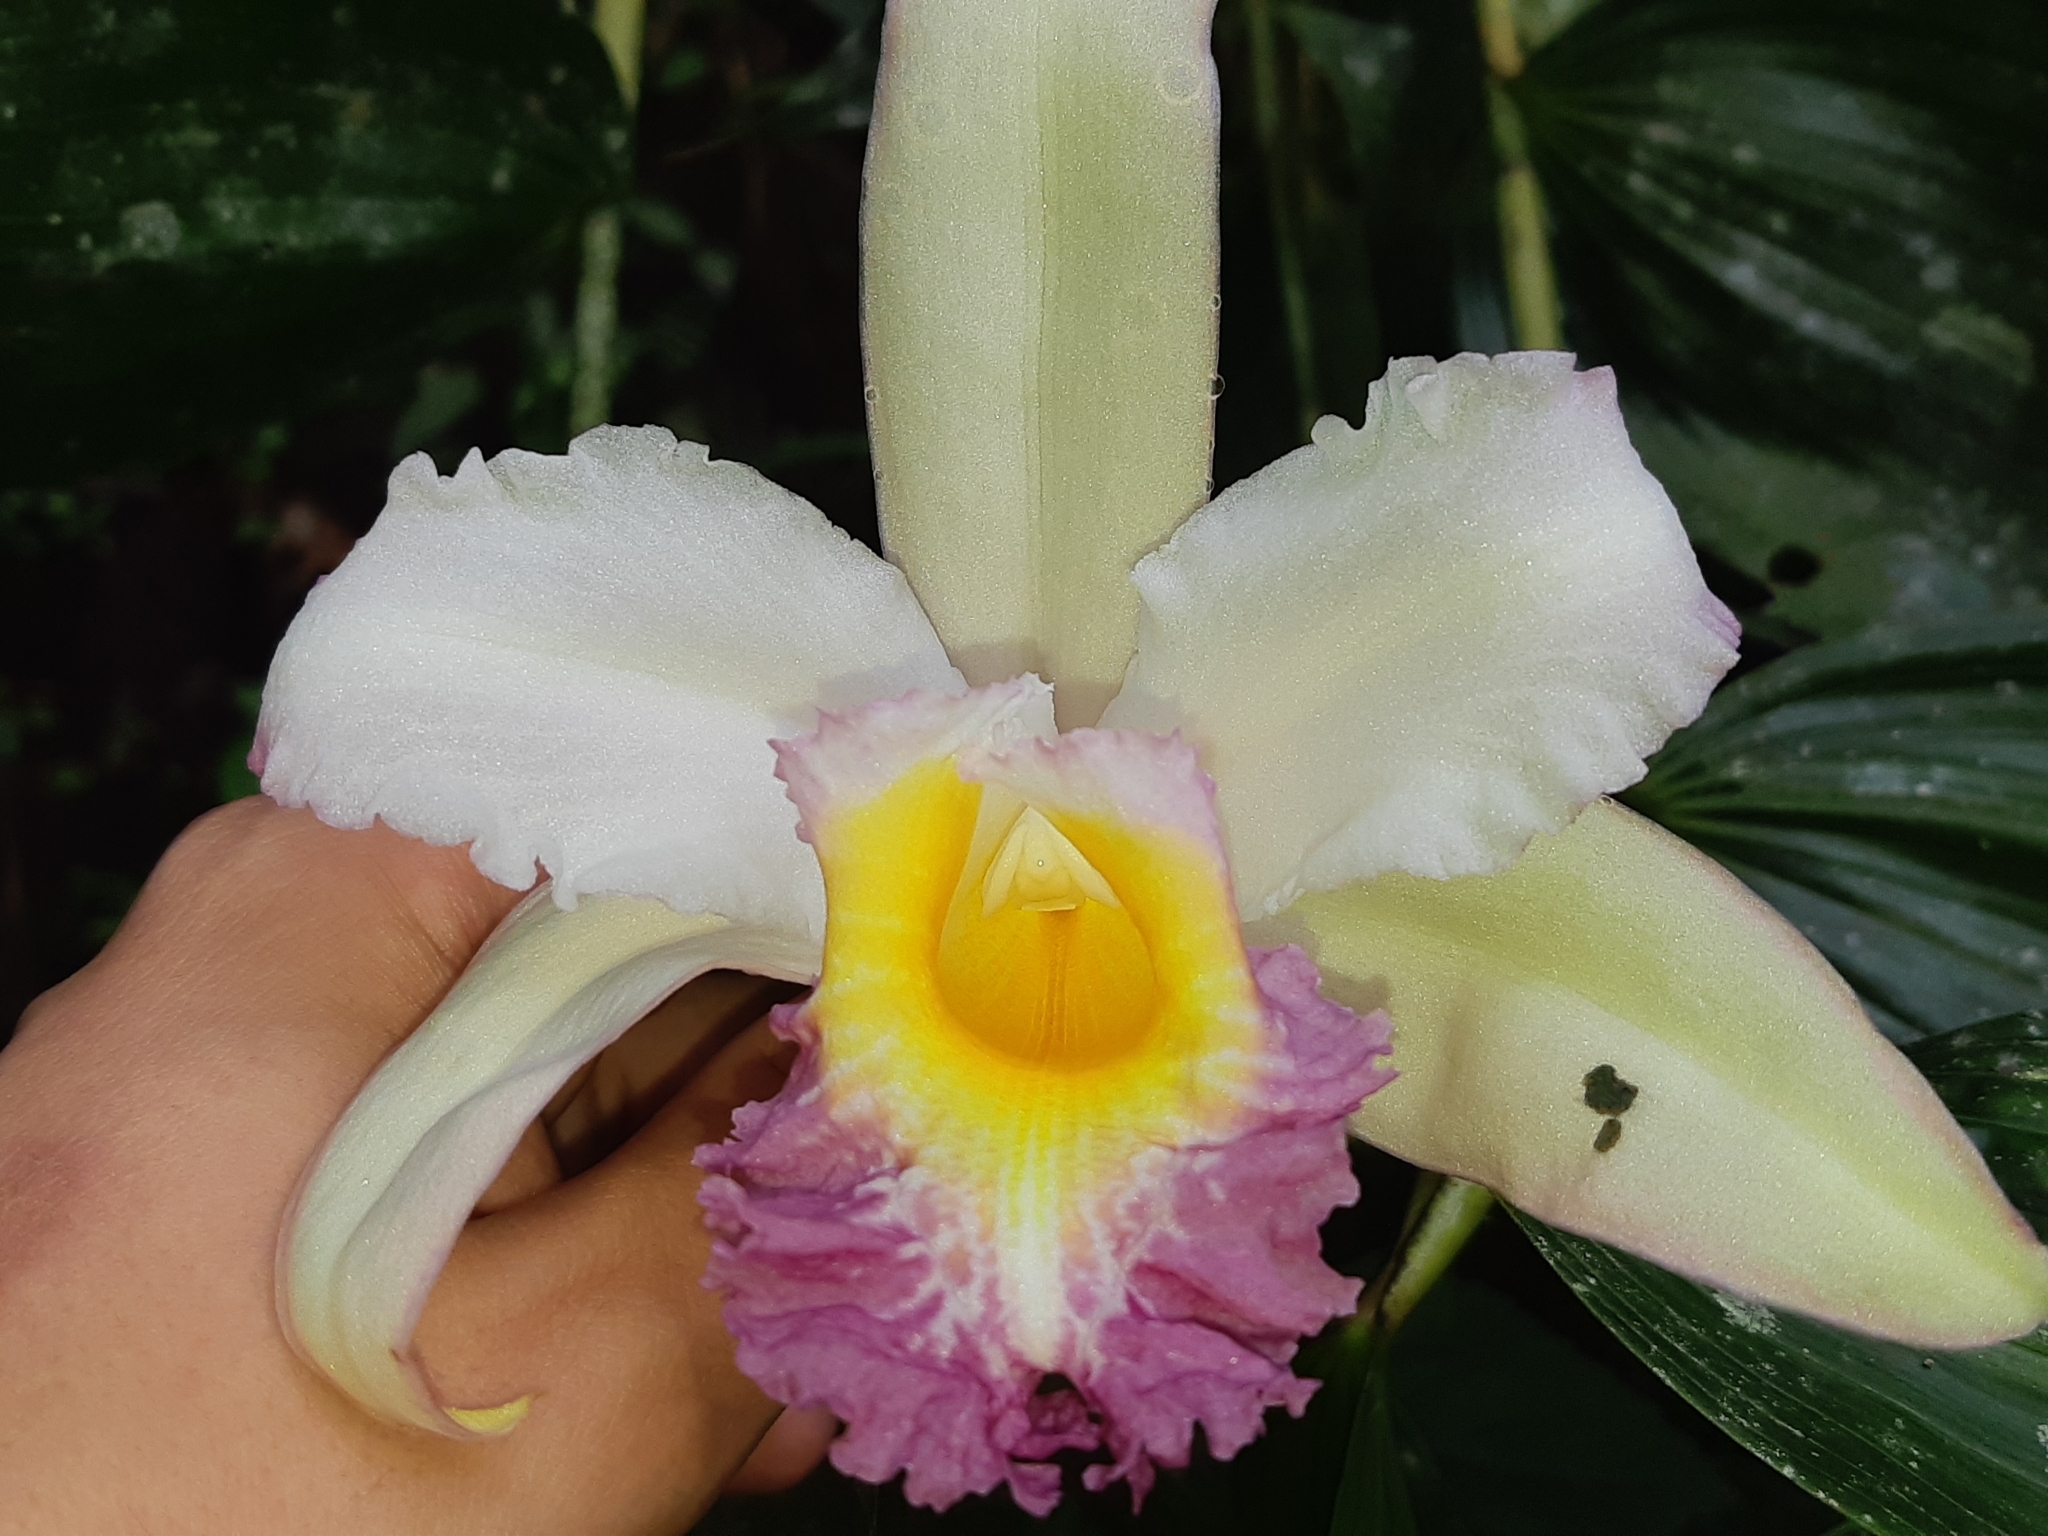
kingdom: Plantae
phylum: Tracheophyta
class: Liliopsida
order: Asparagales
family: Orchidaceae
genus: Sobralia
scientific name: Sobralia ecuadorana
